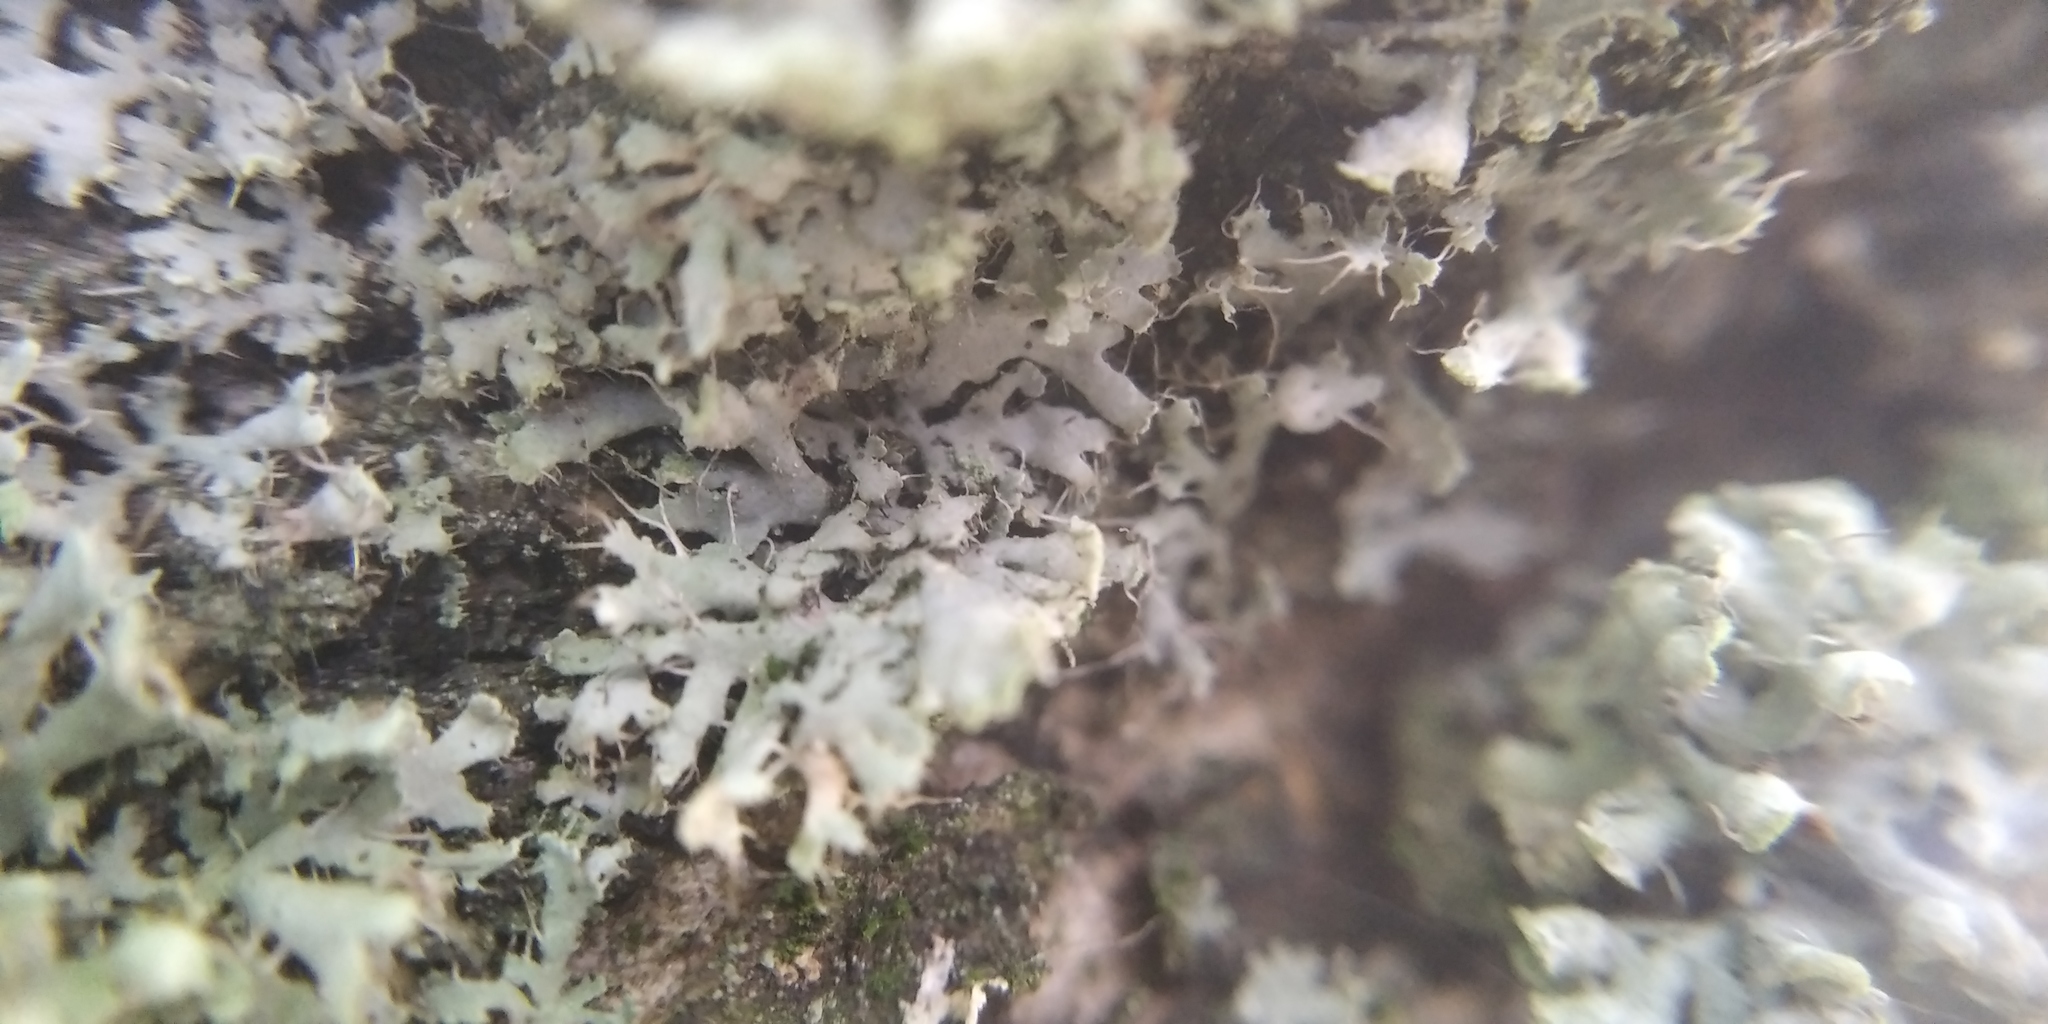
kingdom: Fungi
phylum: Ascomycota
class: Lecanoromycetes
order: Caliciales
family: Physciaceae
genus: Physcia
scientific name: Physcia adscendens
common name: Hooded rosette lichen
